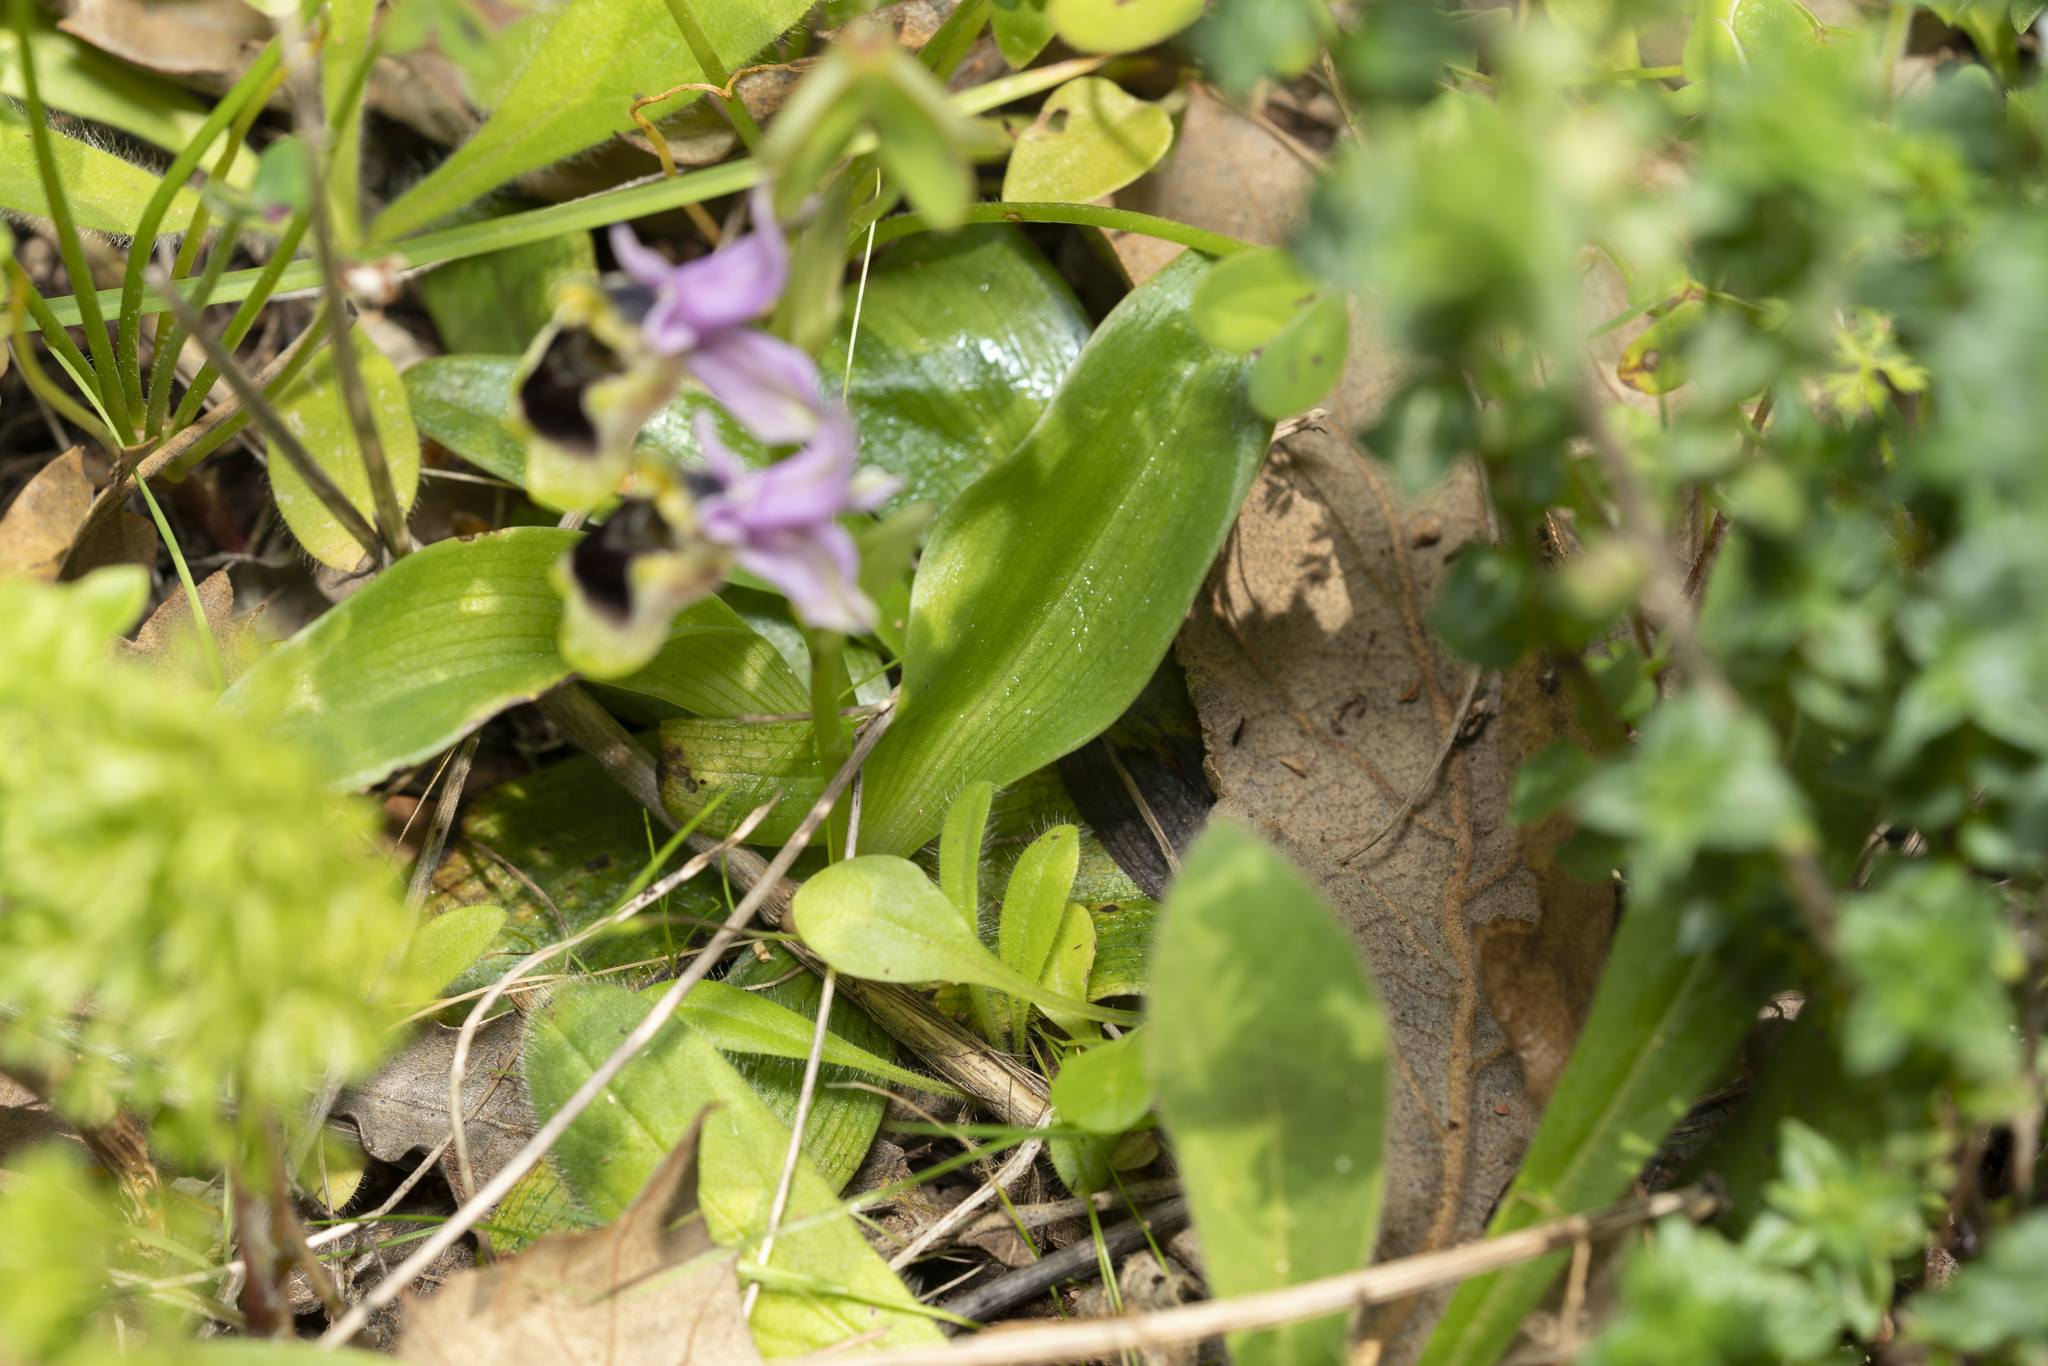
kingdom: Plantae
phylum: Tracheophyta
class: Liliopsida
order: Asparagales
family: Orchidaceae
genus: Ophrys
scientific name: Ophrys tenthredinifera
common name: Sawfly orchid
